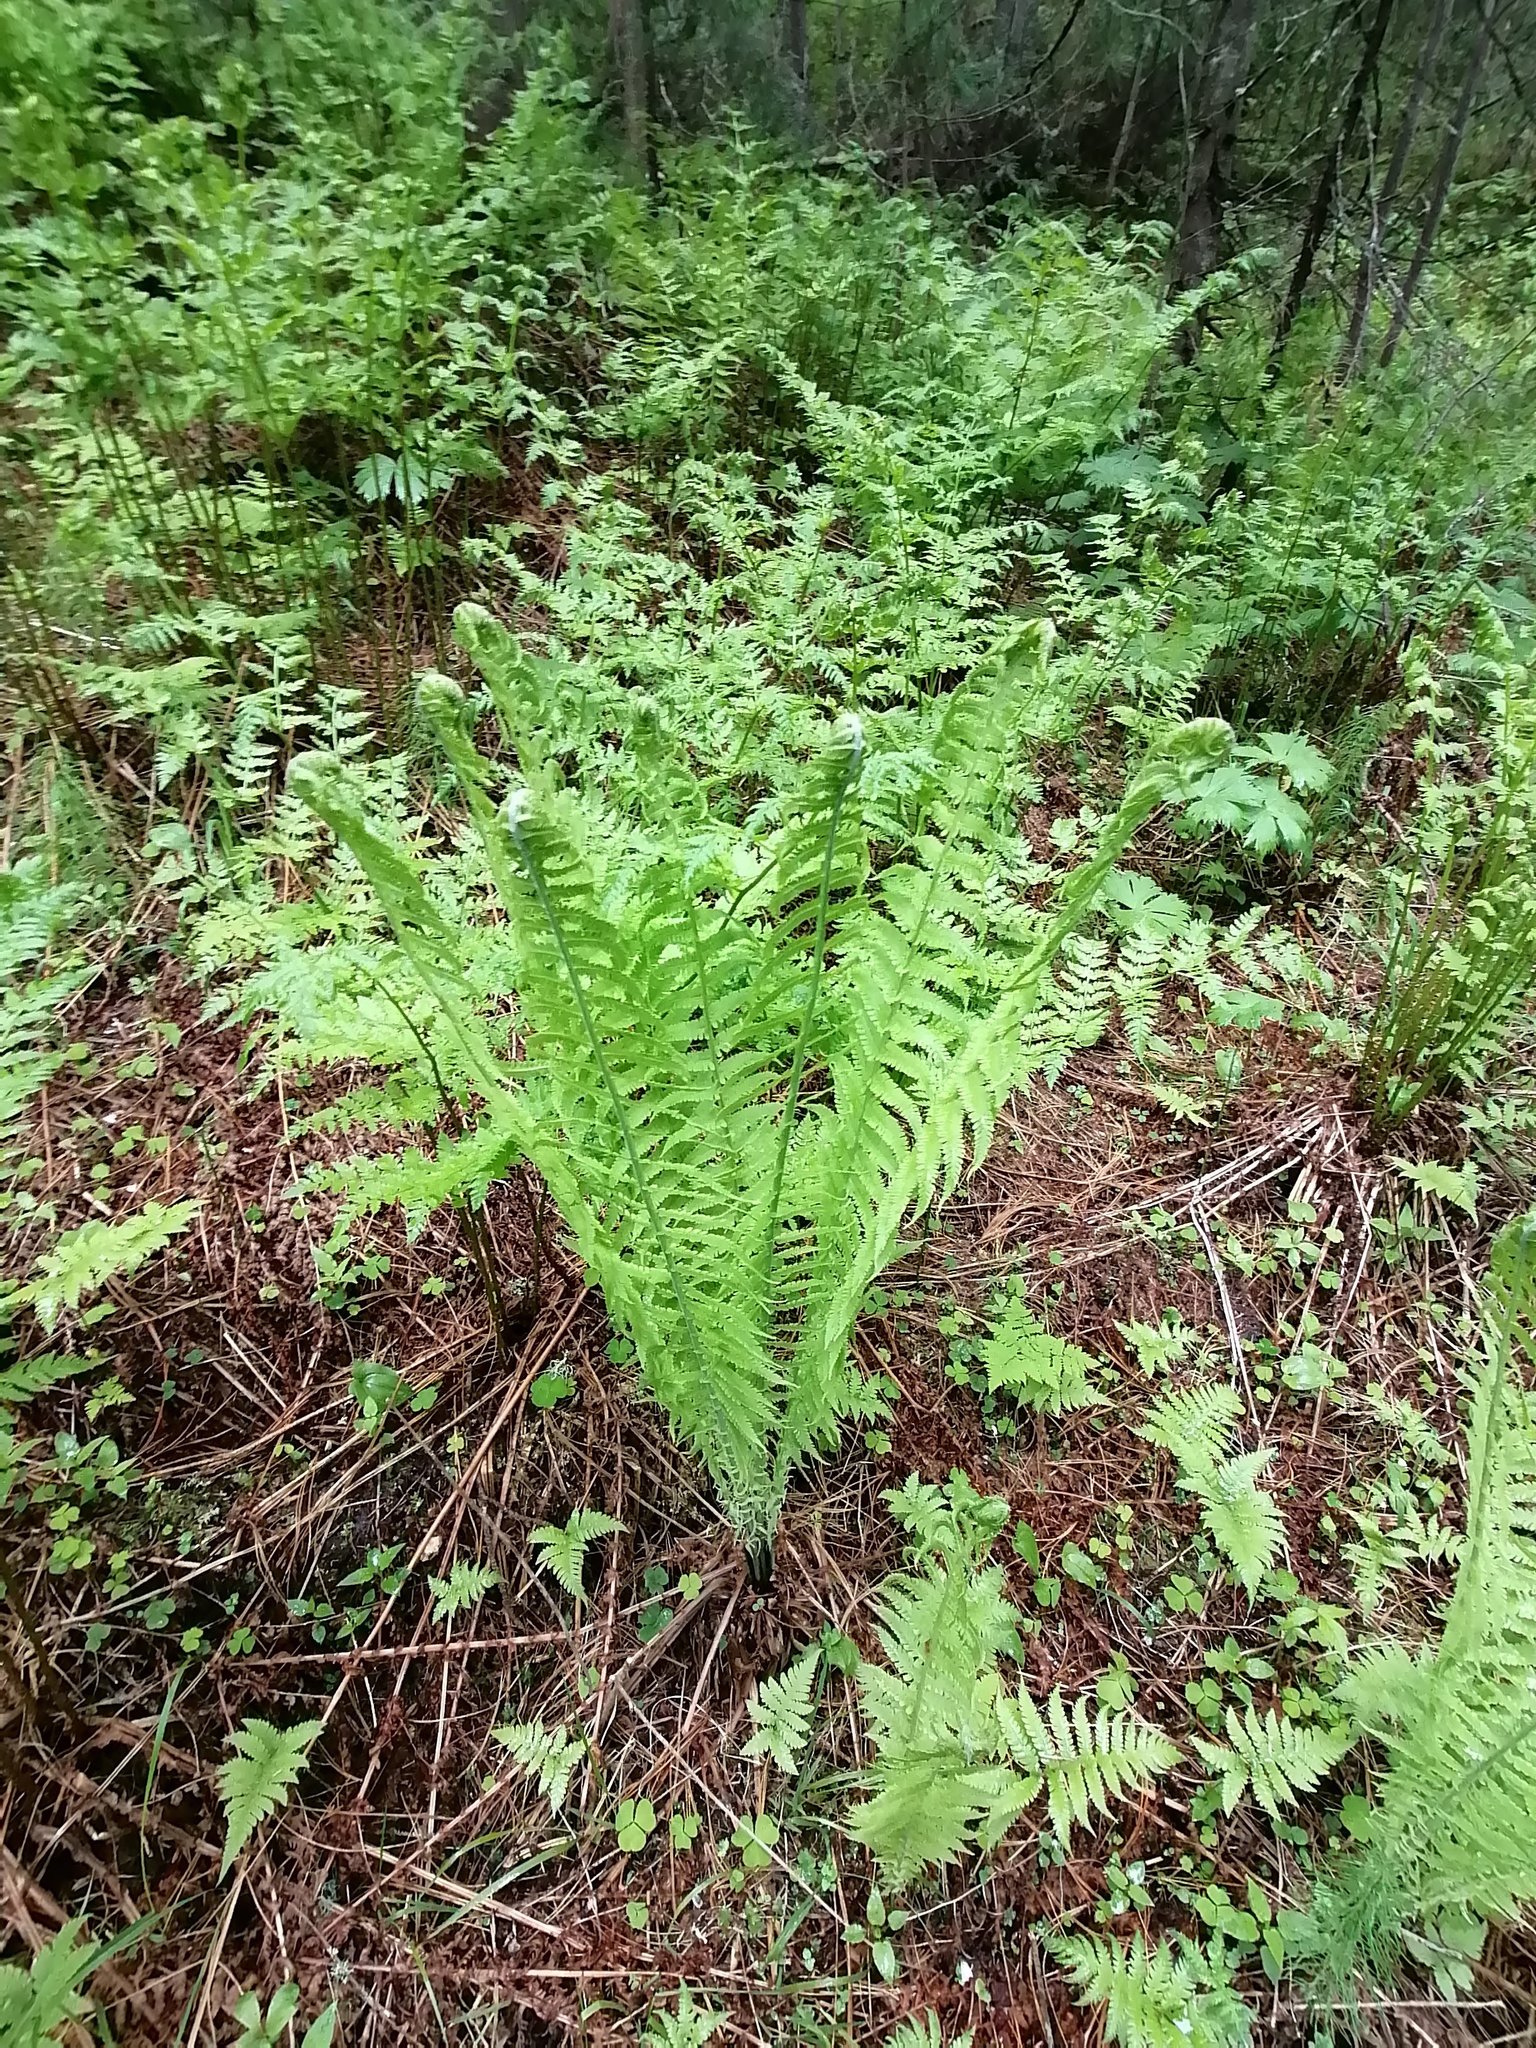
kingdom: Plantae
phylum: Tracheophyta
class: Polypodiopsida
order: Polypodiales
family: Onocleaceae
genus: Matteuccia
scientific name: Matteuccia struthiopteris
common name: Ostrich fern
